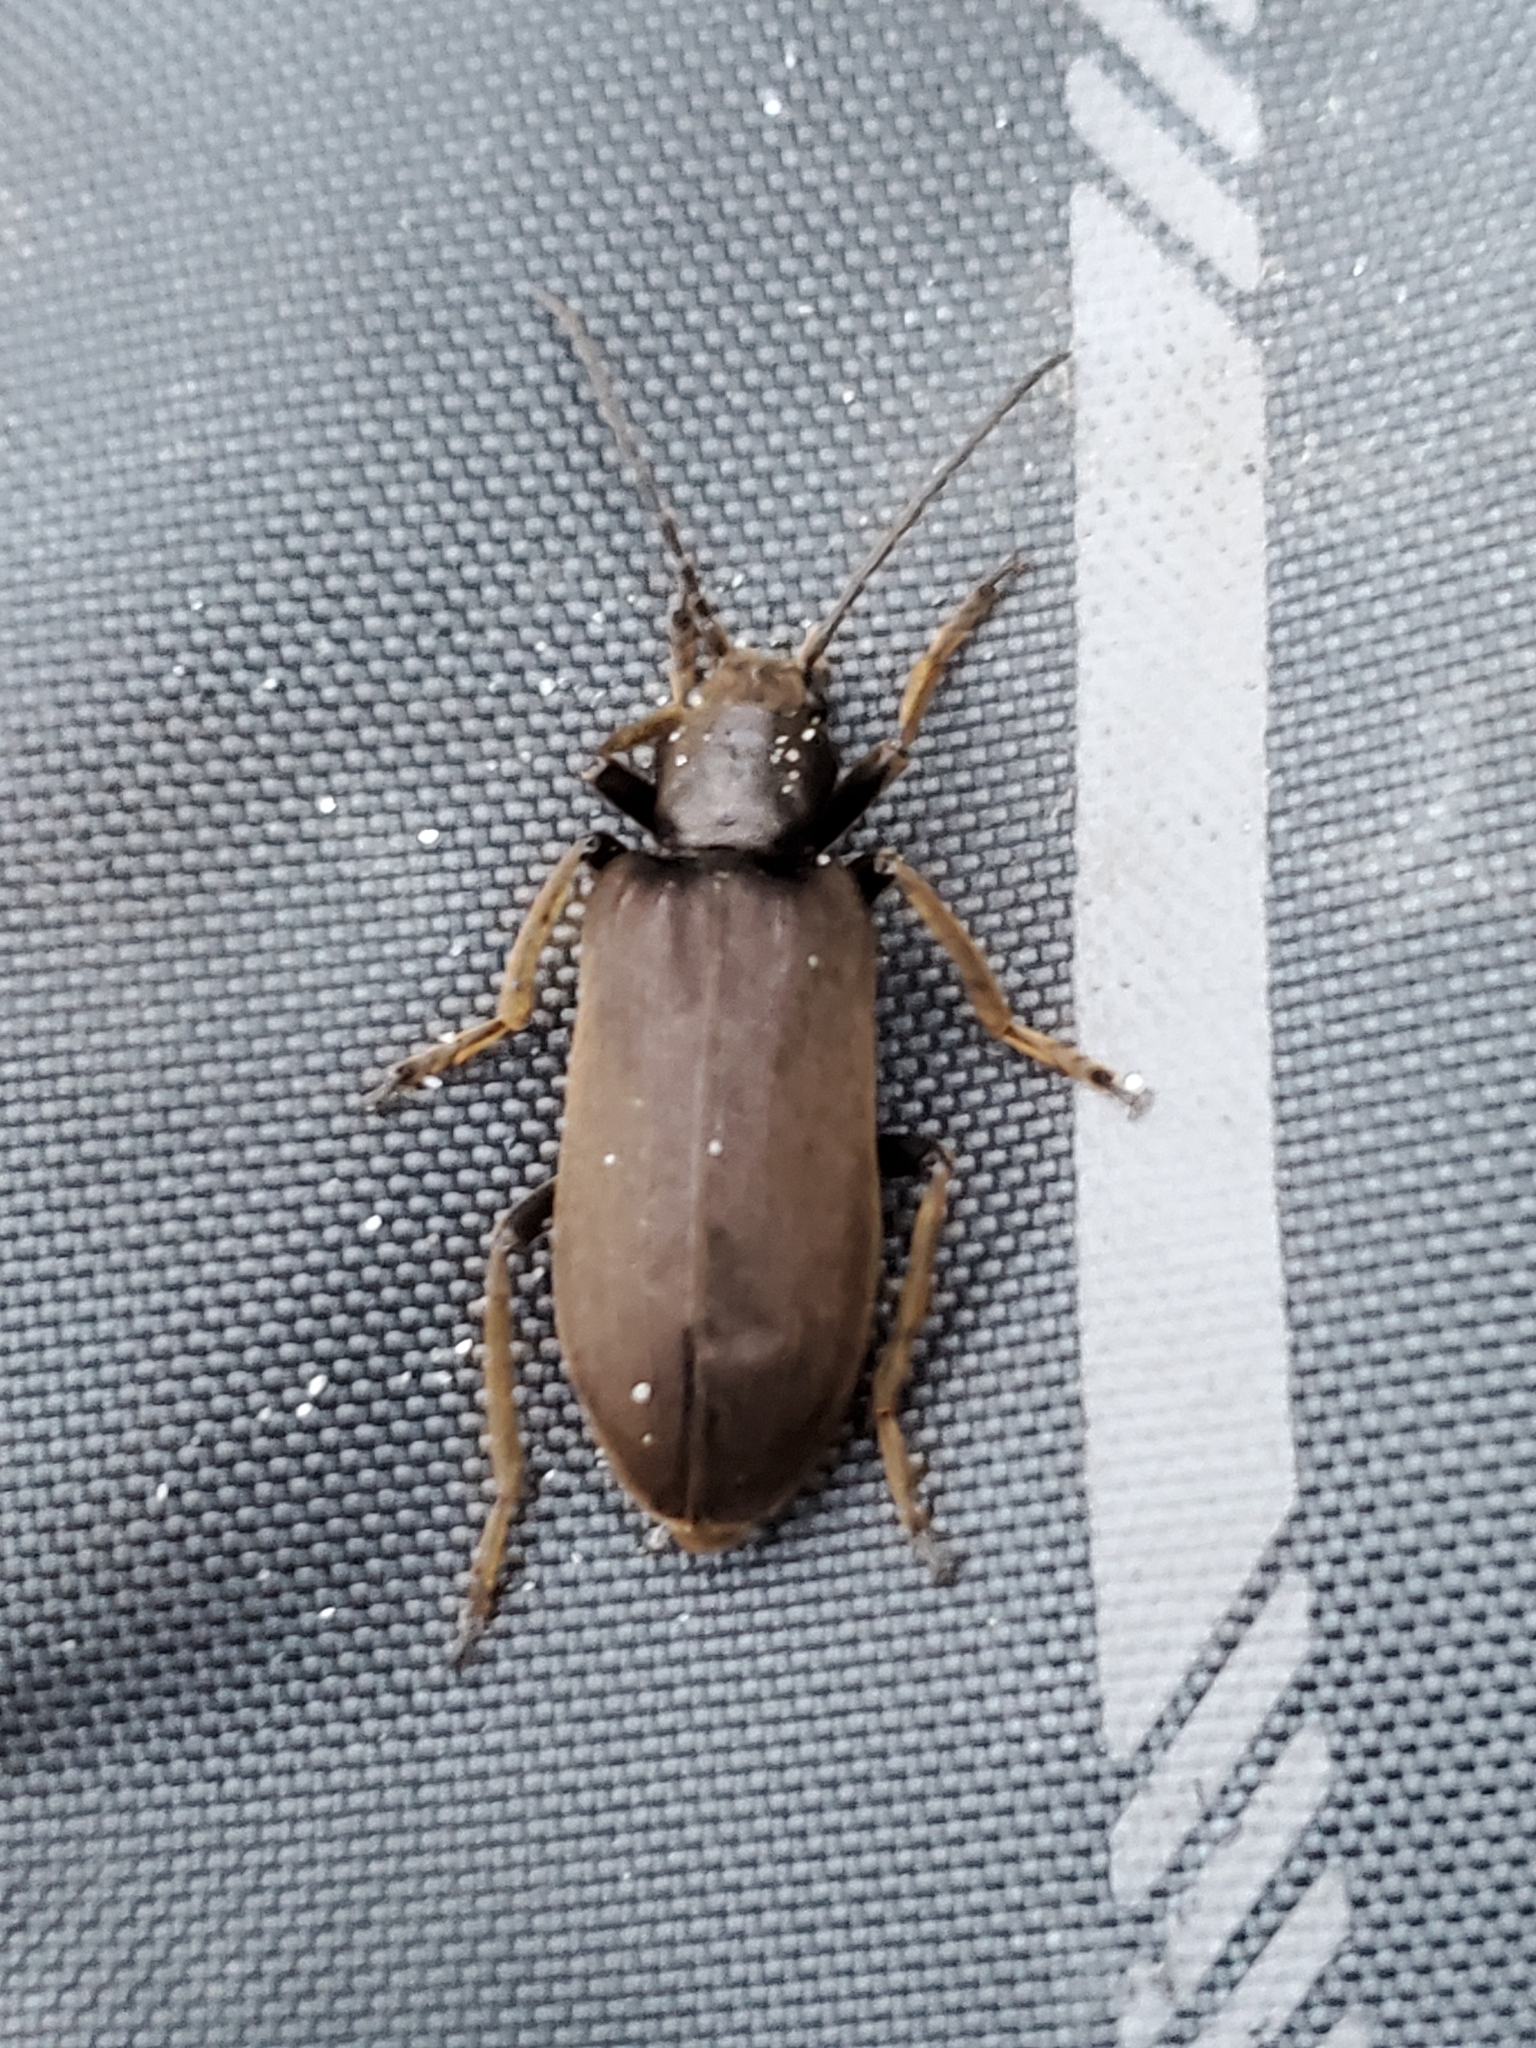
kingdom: Animalia
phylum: Arthropoda
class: Insecta
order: Coleoptera
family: Oedemeridae
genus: Ditylus
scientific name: Ditylus quadricollis
